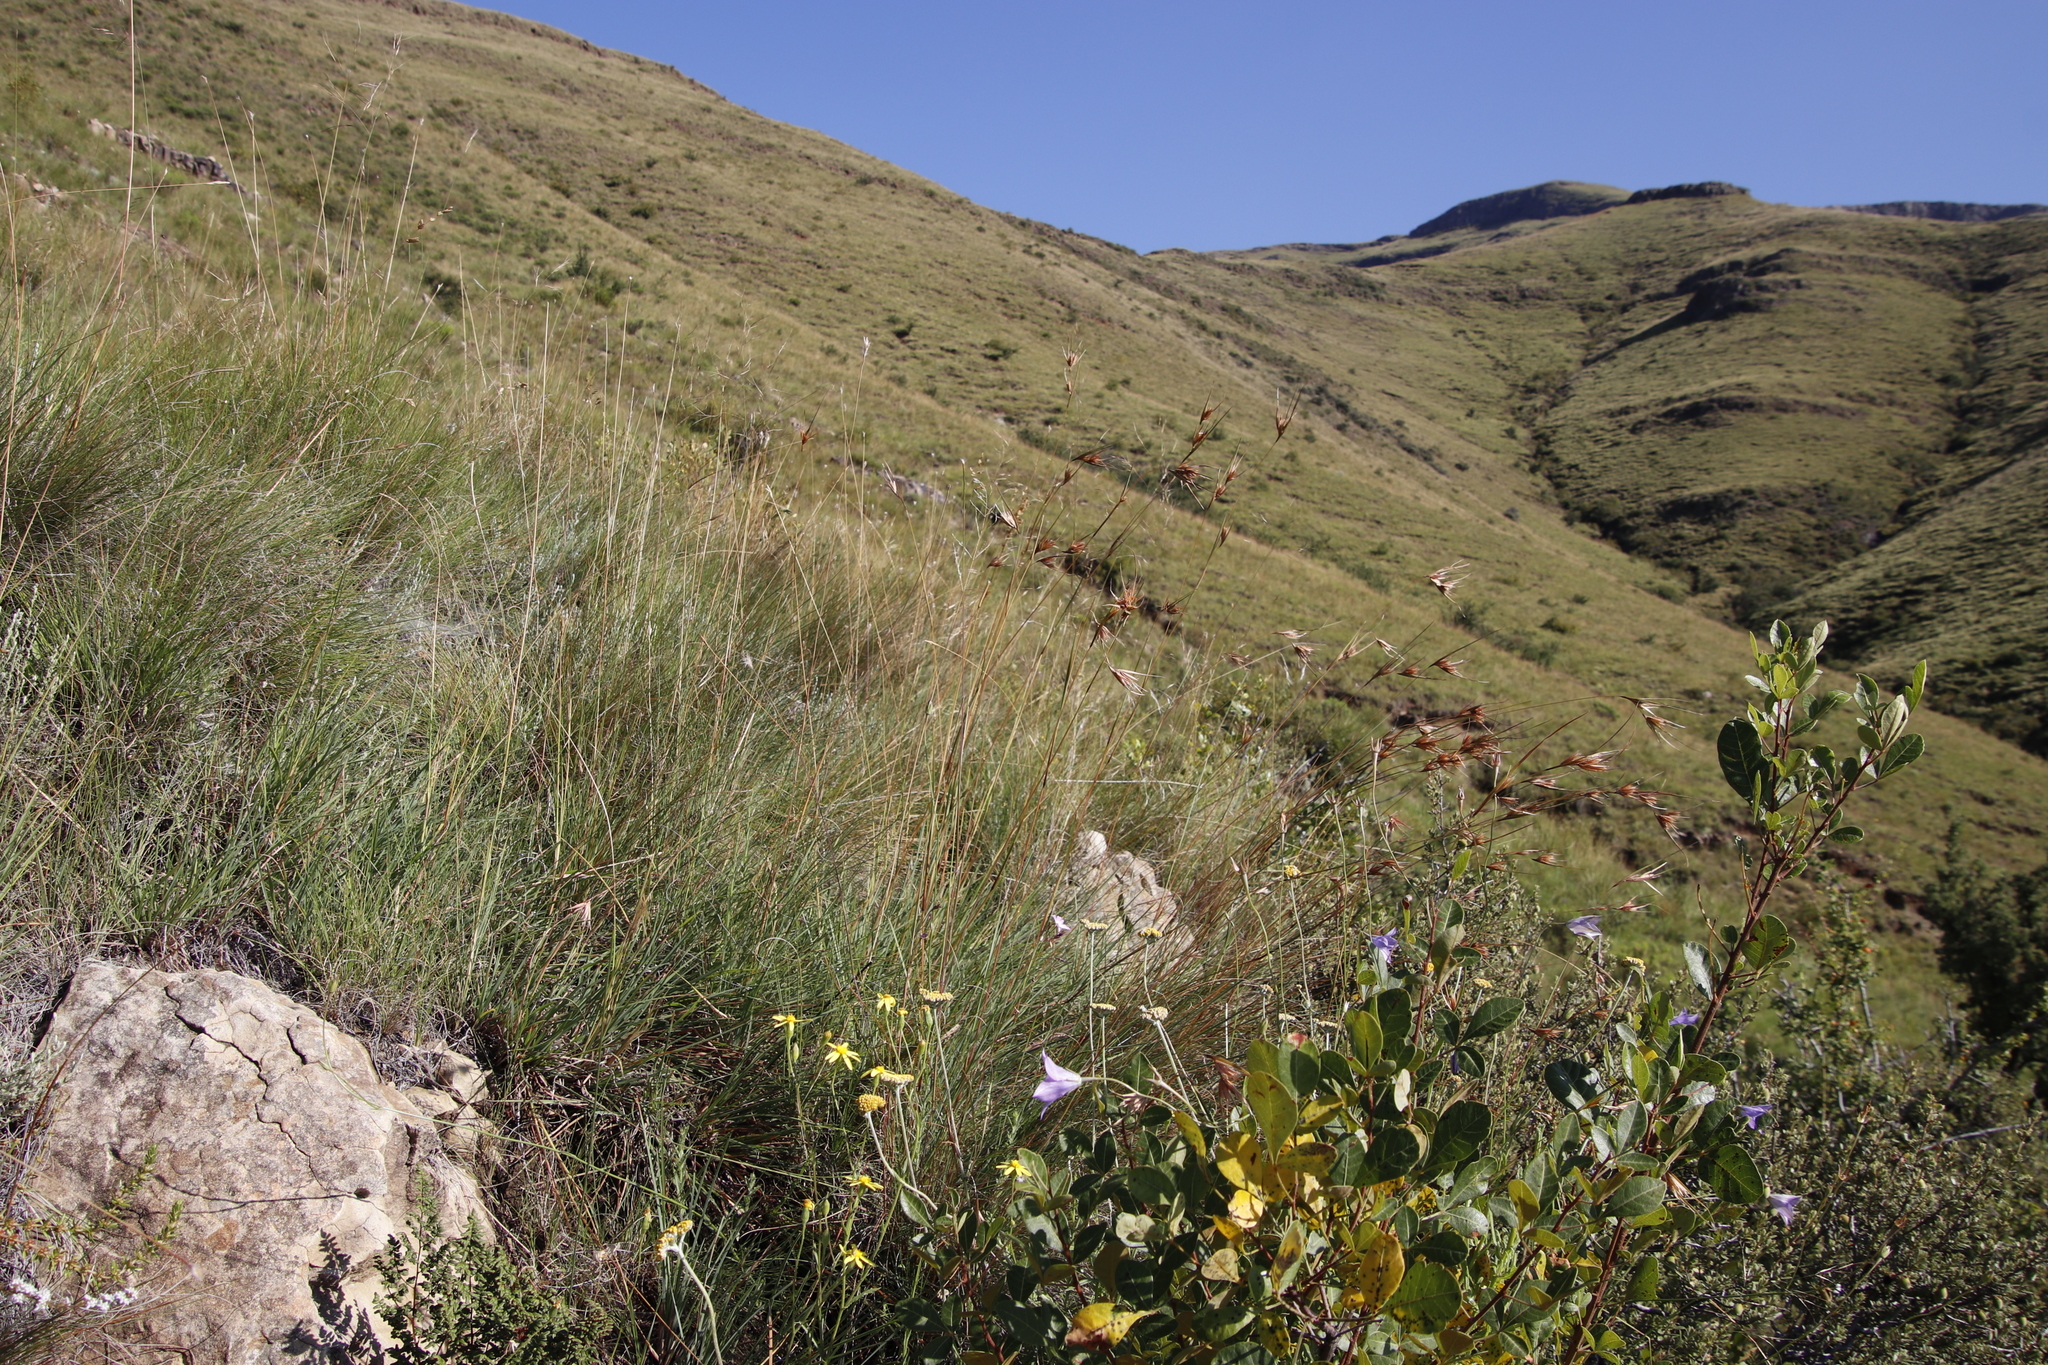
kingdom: Plantae
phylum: Tracheophyta
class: Liliopsida
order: Poales
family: Poaceae
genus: Themeda
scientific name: Themeda triandra
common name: Kangaroo grass
